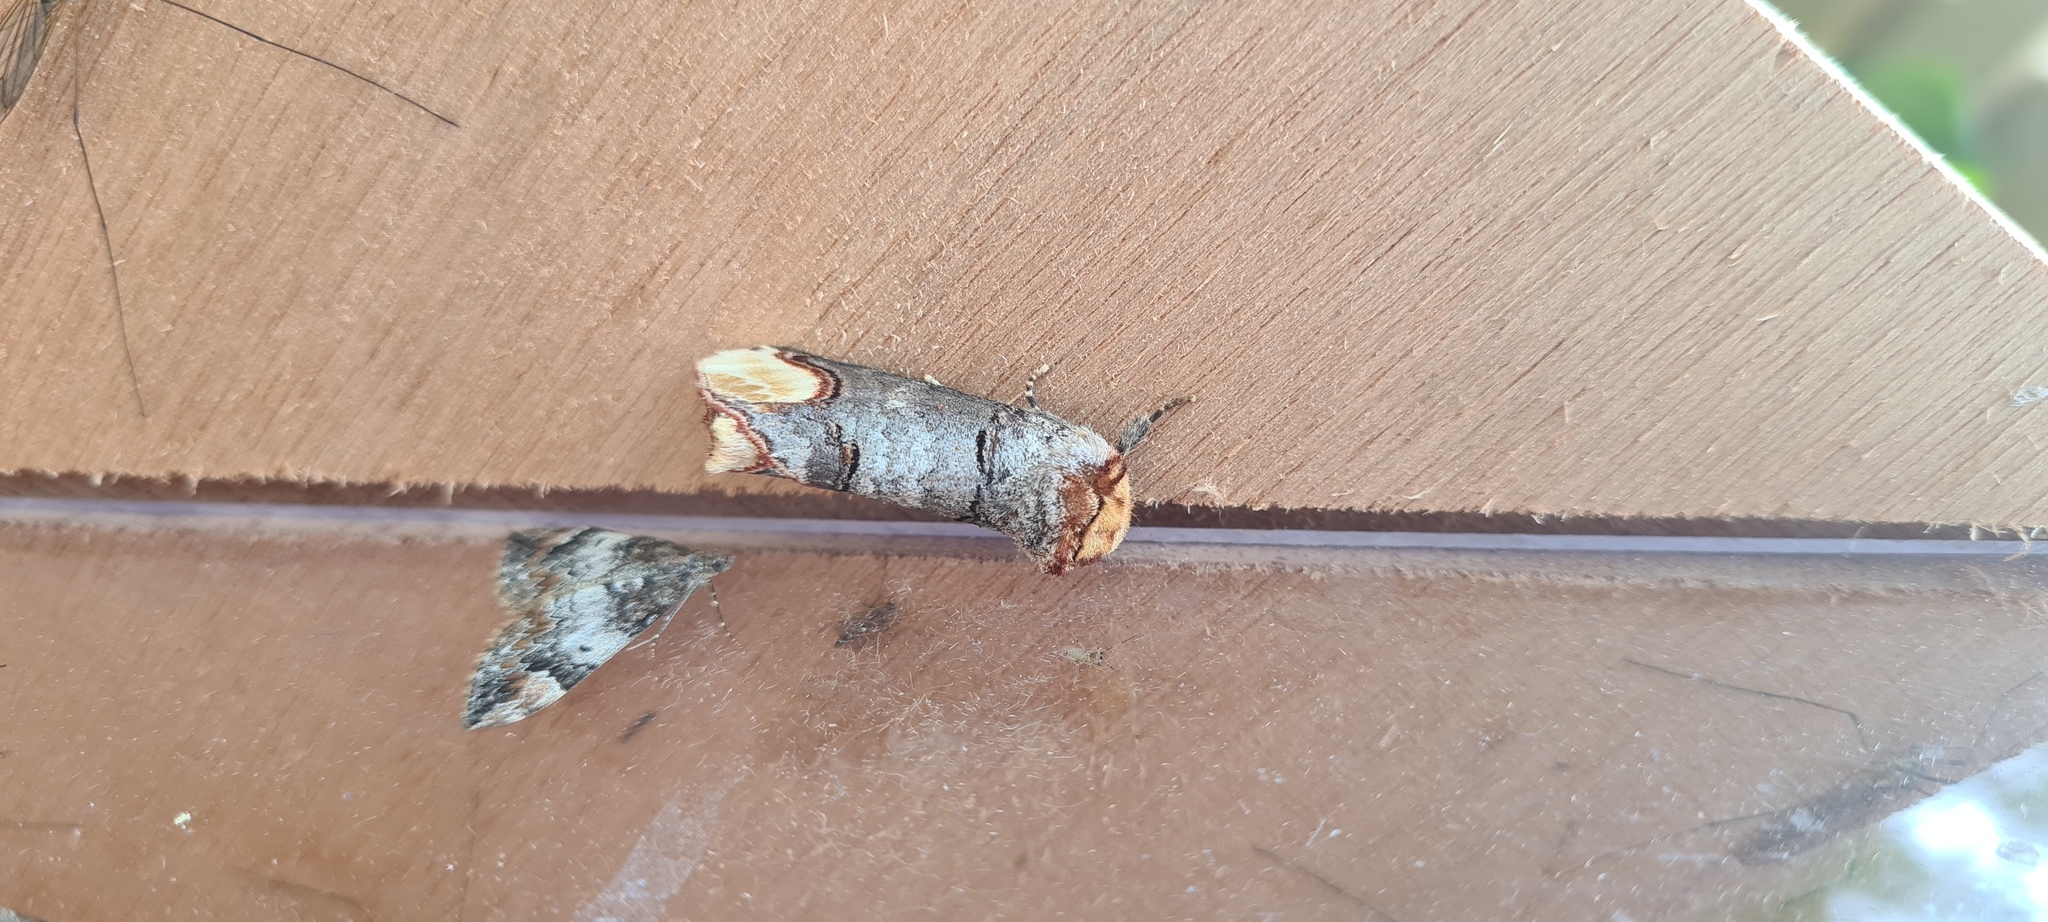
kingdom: Animalia
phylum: Arthropoda
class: Insecta
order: Lepidoptera
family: Notodontidae
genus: Phalera
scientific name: Phalera bucephala
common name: Buff-tip
